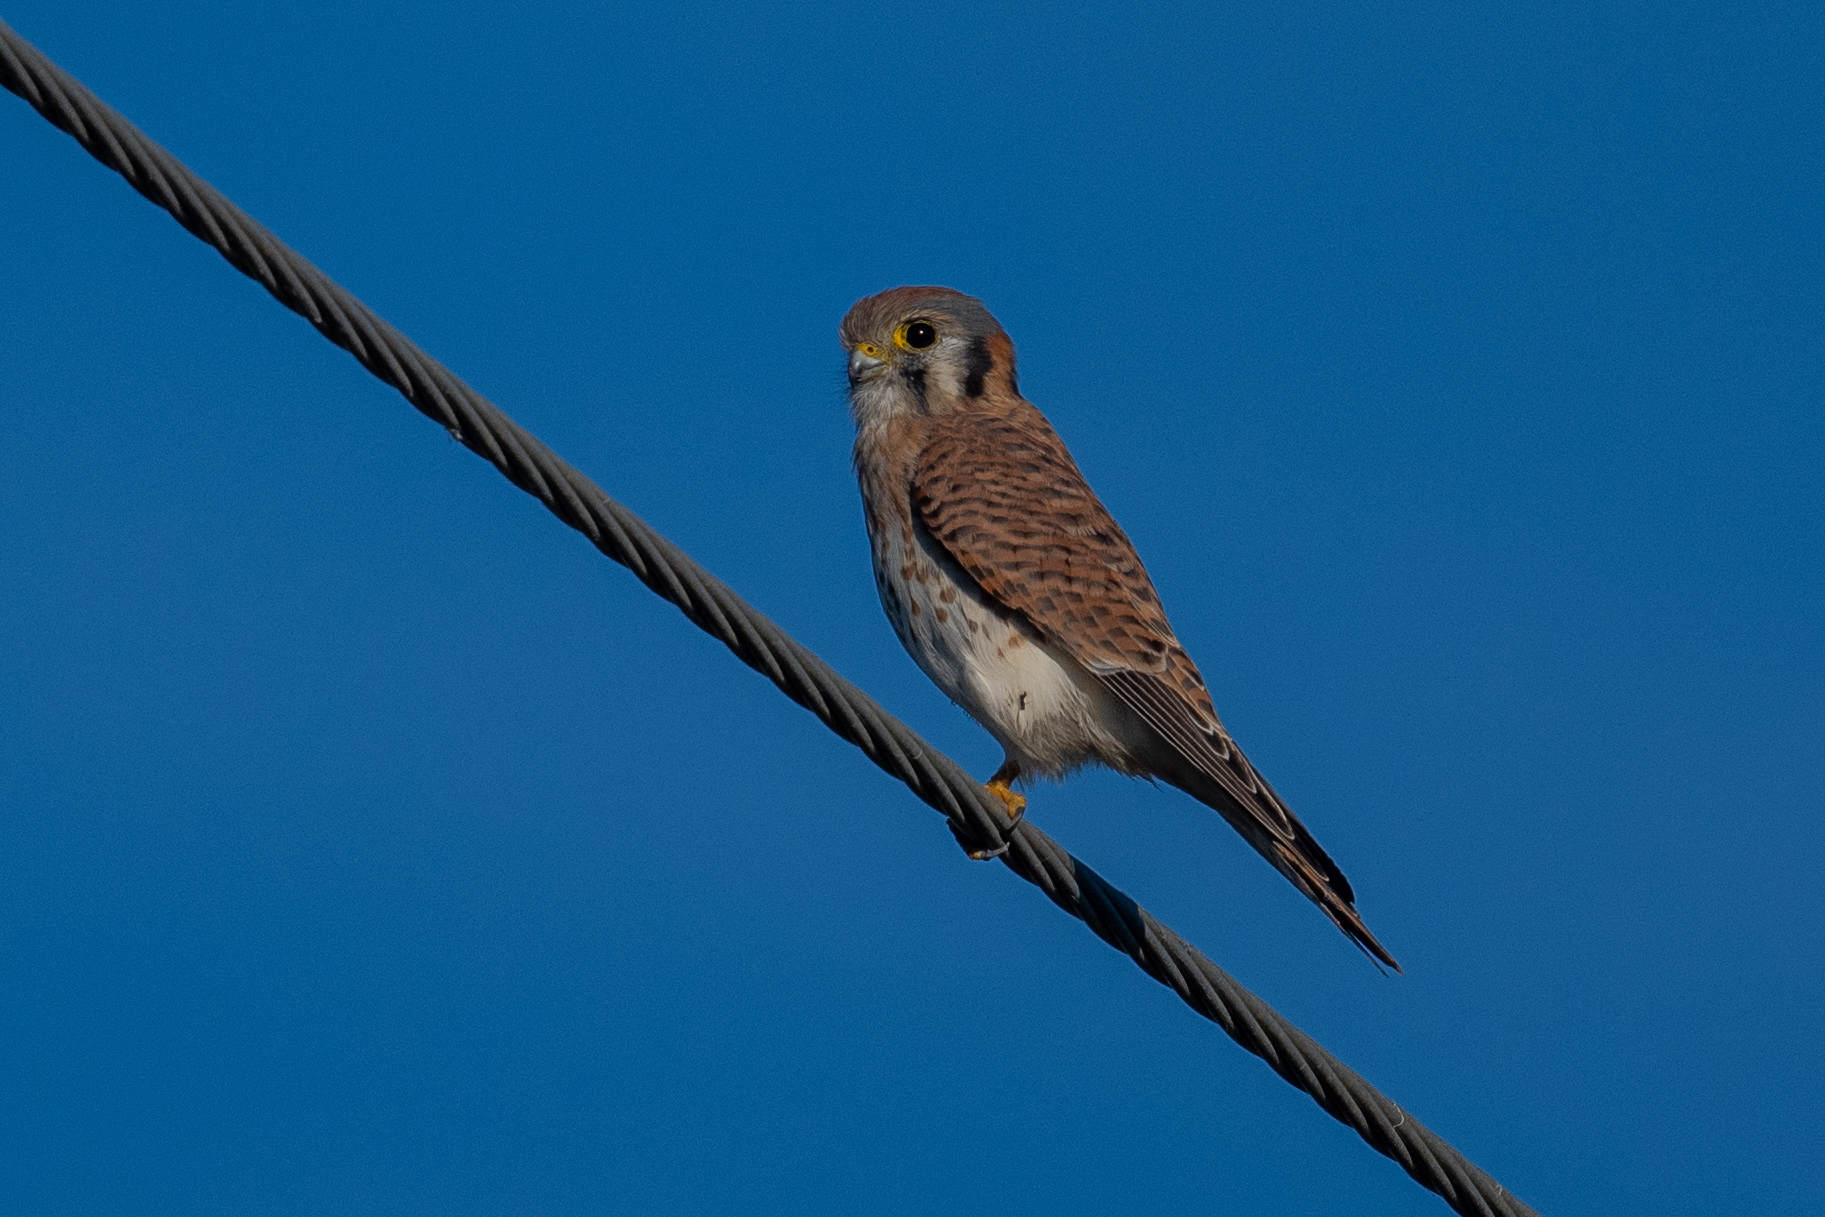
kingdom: Animalia
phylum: Chordata
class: Aves
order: Falconiformes
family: Falconidae
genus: Falco
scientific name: Falco sparverius
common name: American kestrel
